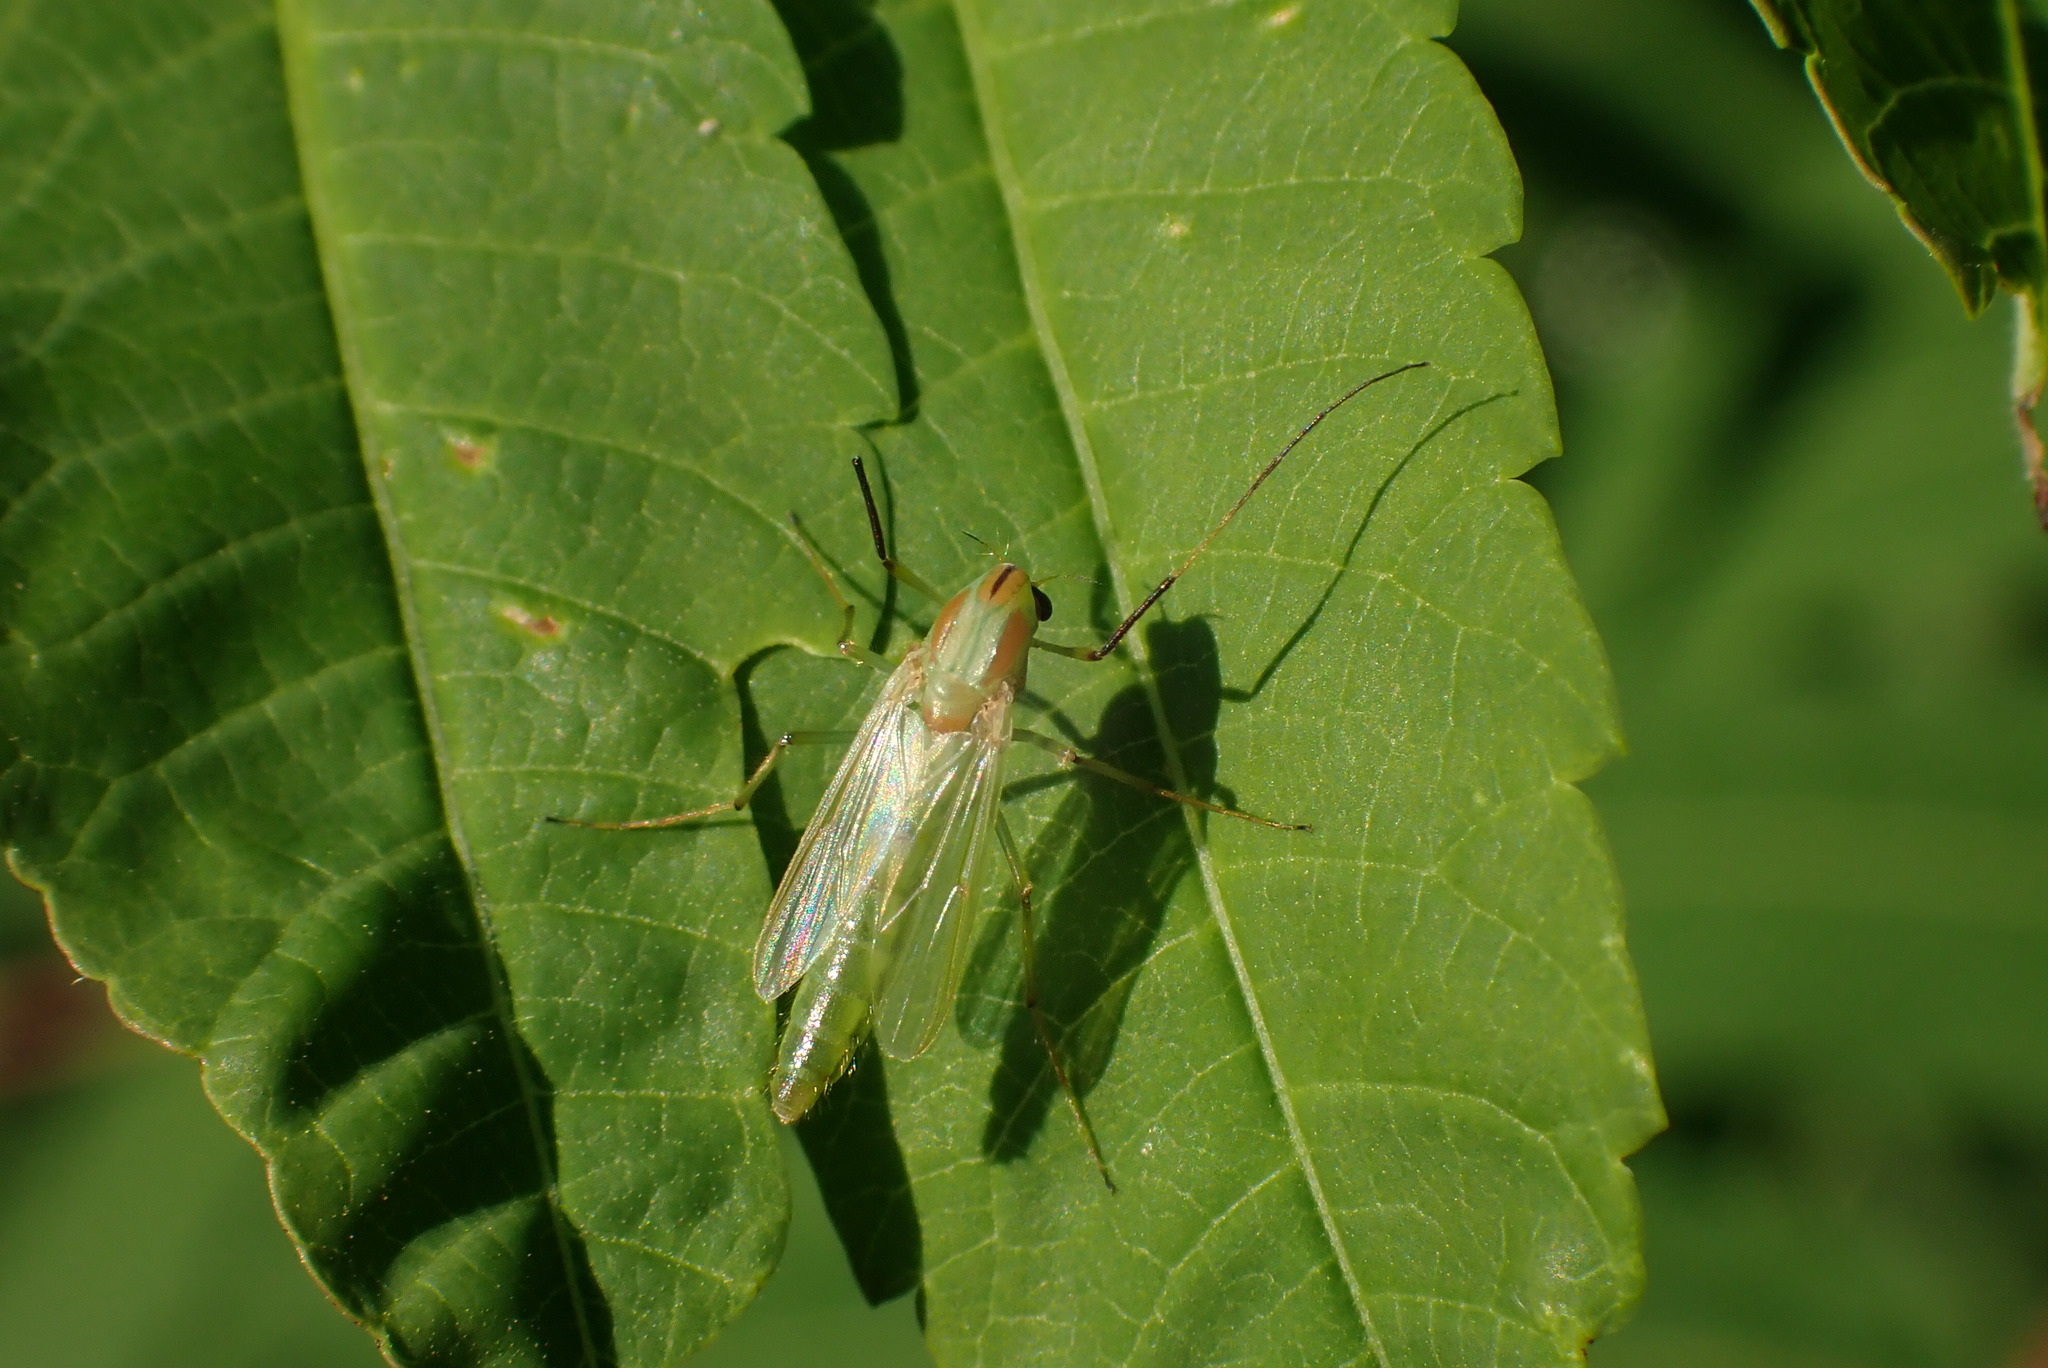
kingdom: Animalia
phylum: Arthropoda
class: Insecta
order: Diptera
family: Chironomidae
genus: Axarus
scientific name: Axarus
